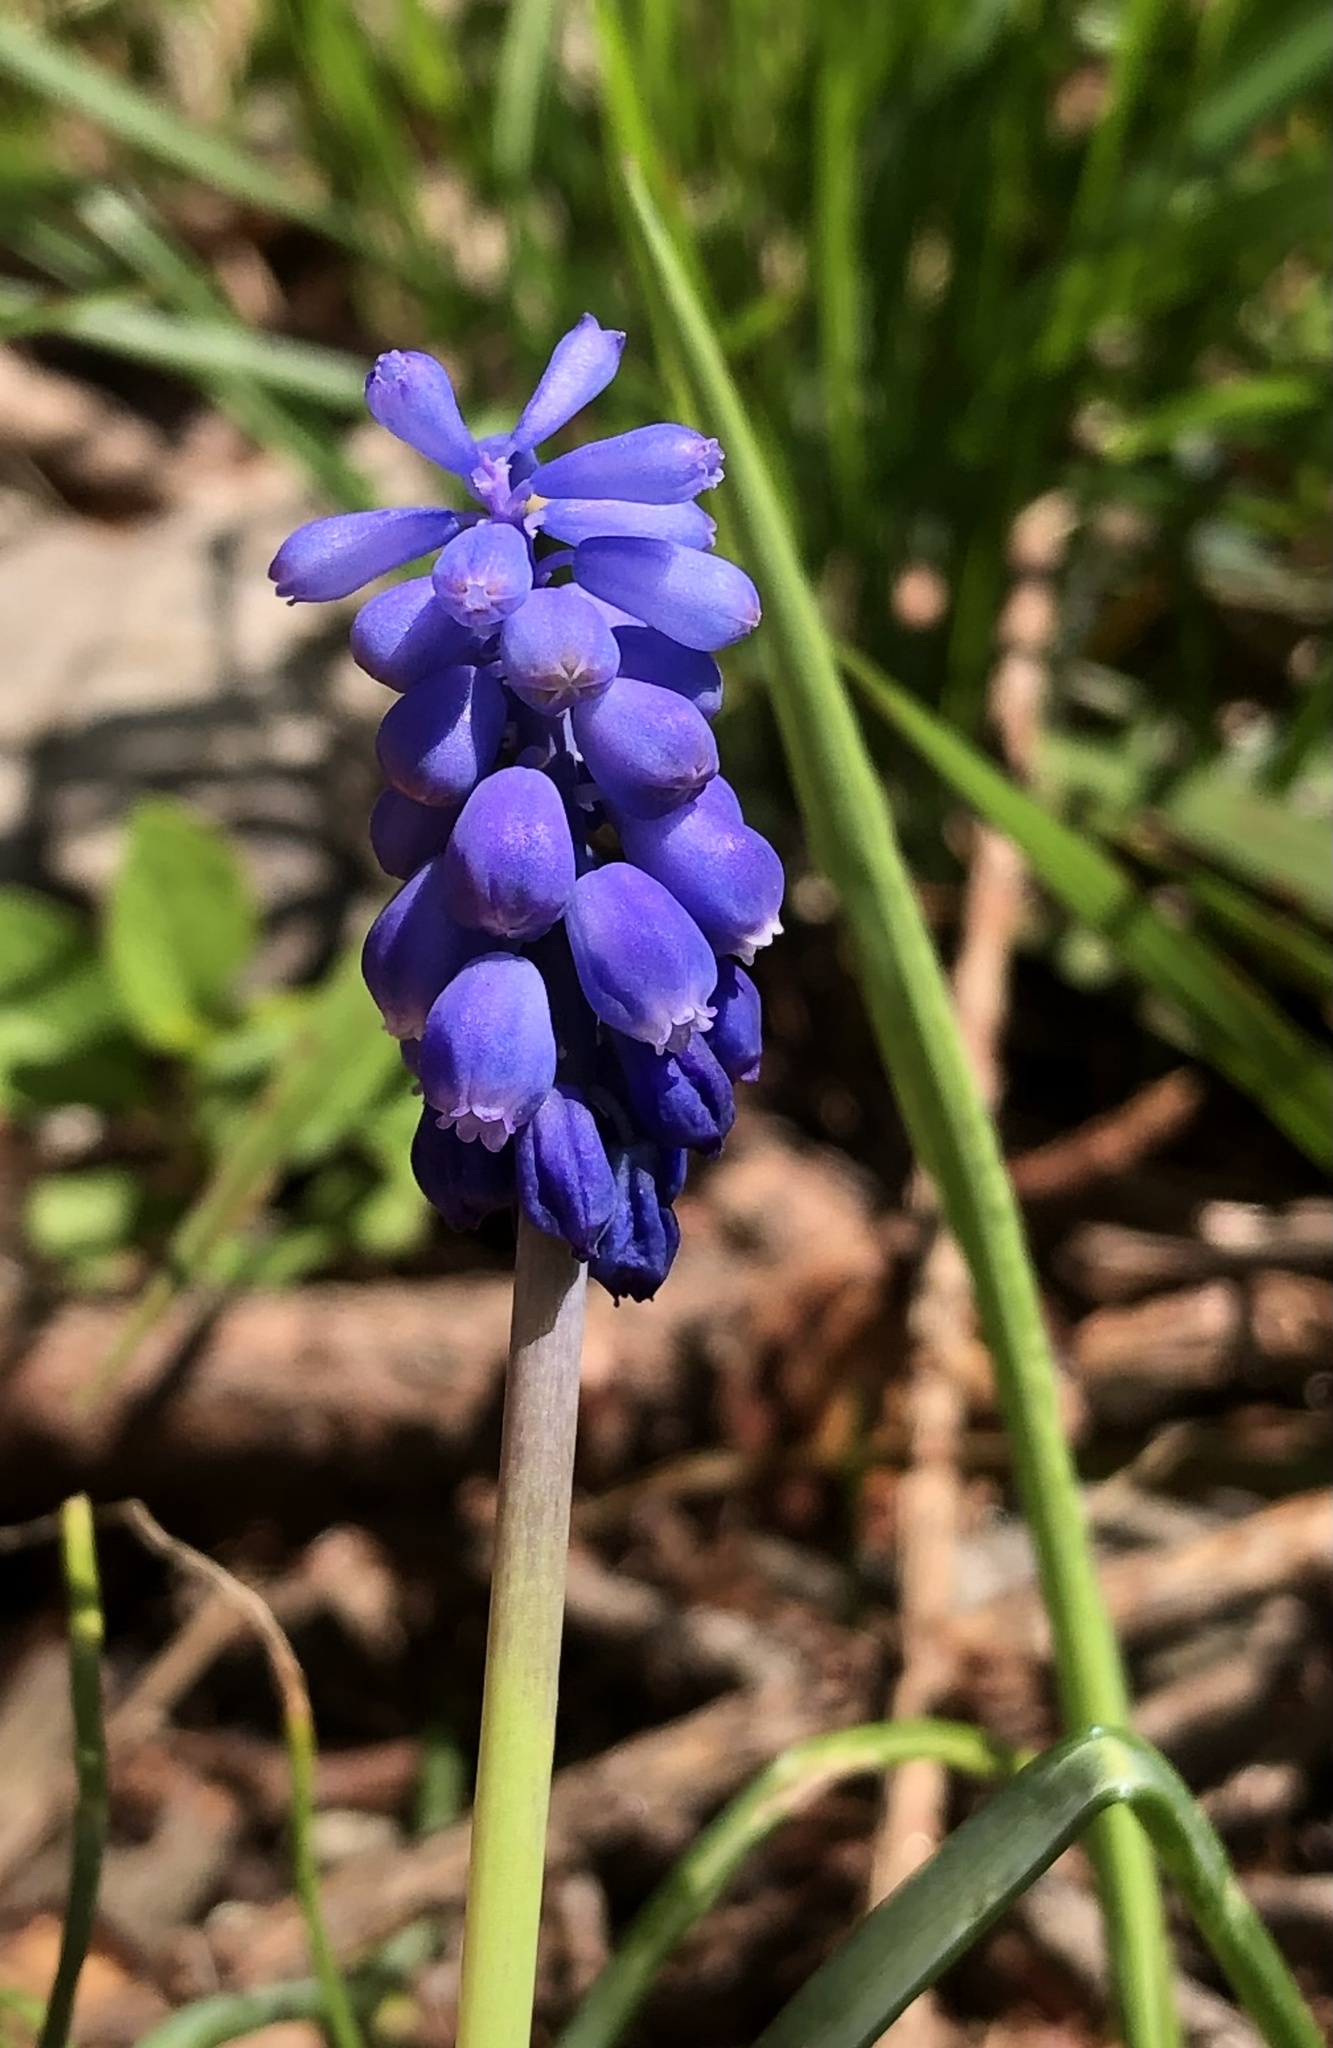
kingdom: Plantae
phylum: Tracheophyta
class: Liliopsida
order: Asparagales
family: Asparagaceae
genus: Muscari
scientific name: Muscari neglectum
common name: Grape-hyacinth
